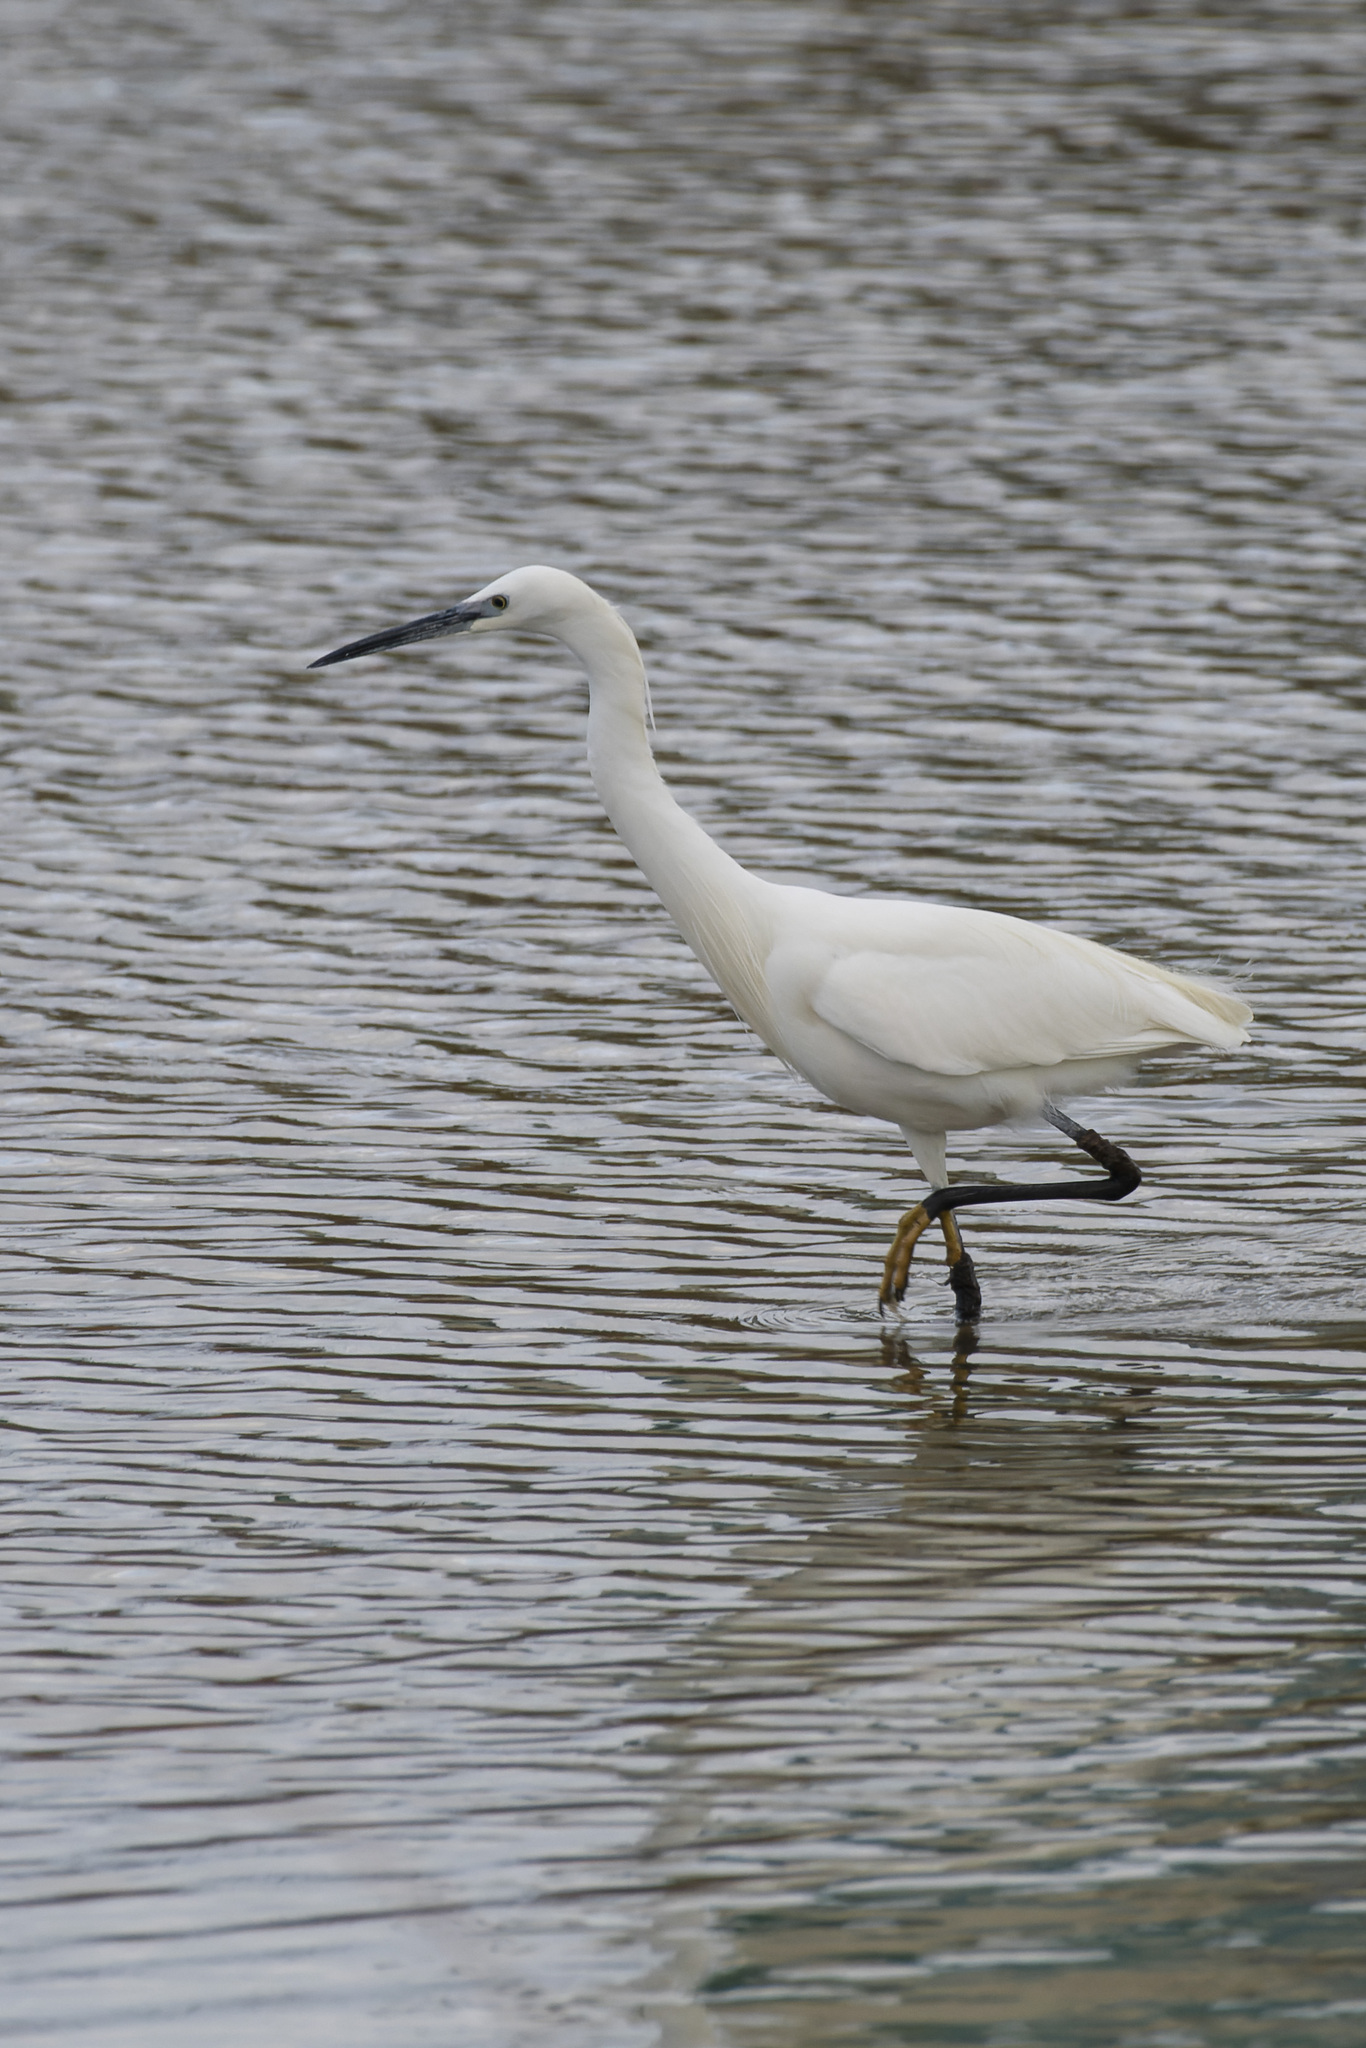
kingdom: Animalia
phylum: Chordata
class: Aves
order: Pelecaniformes
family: Ardeidae
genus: Egretta
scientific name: Egretta garzetta
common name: Little egret
